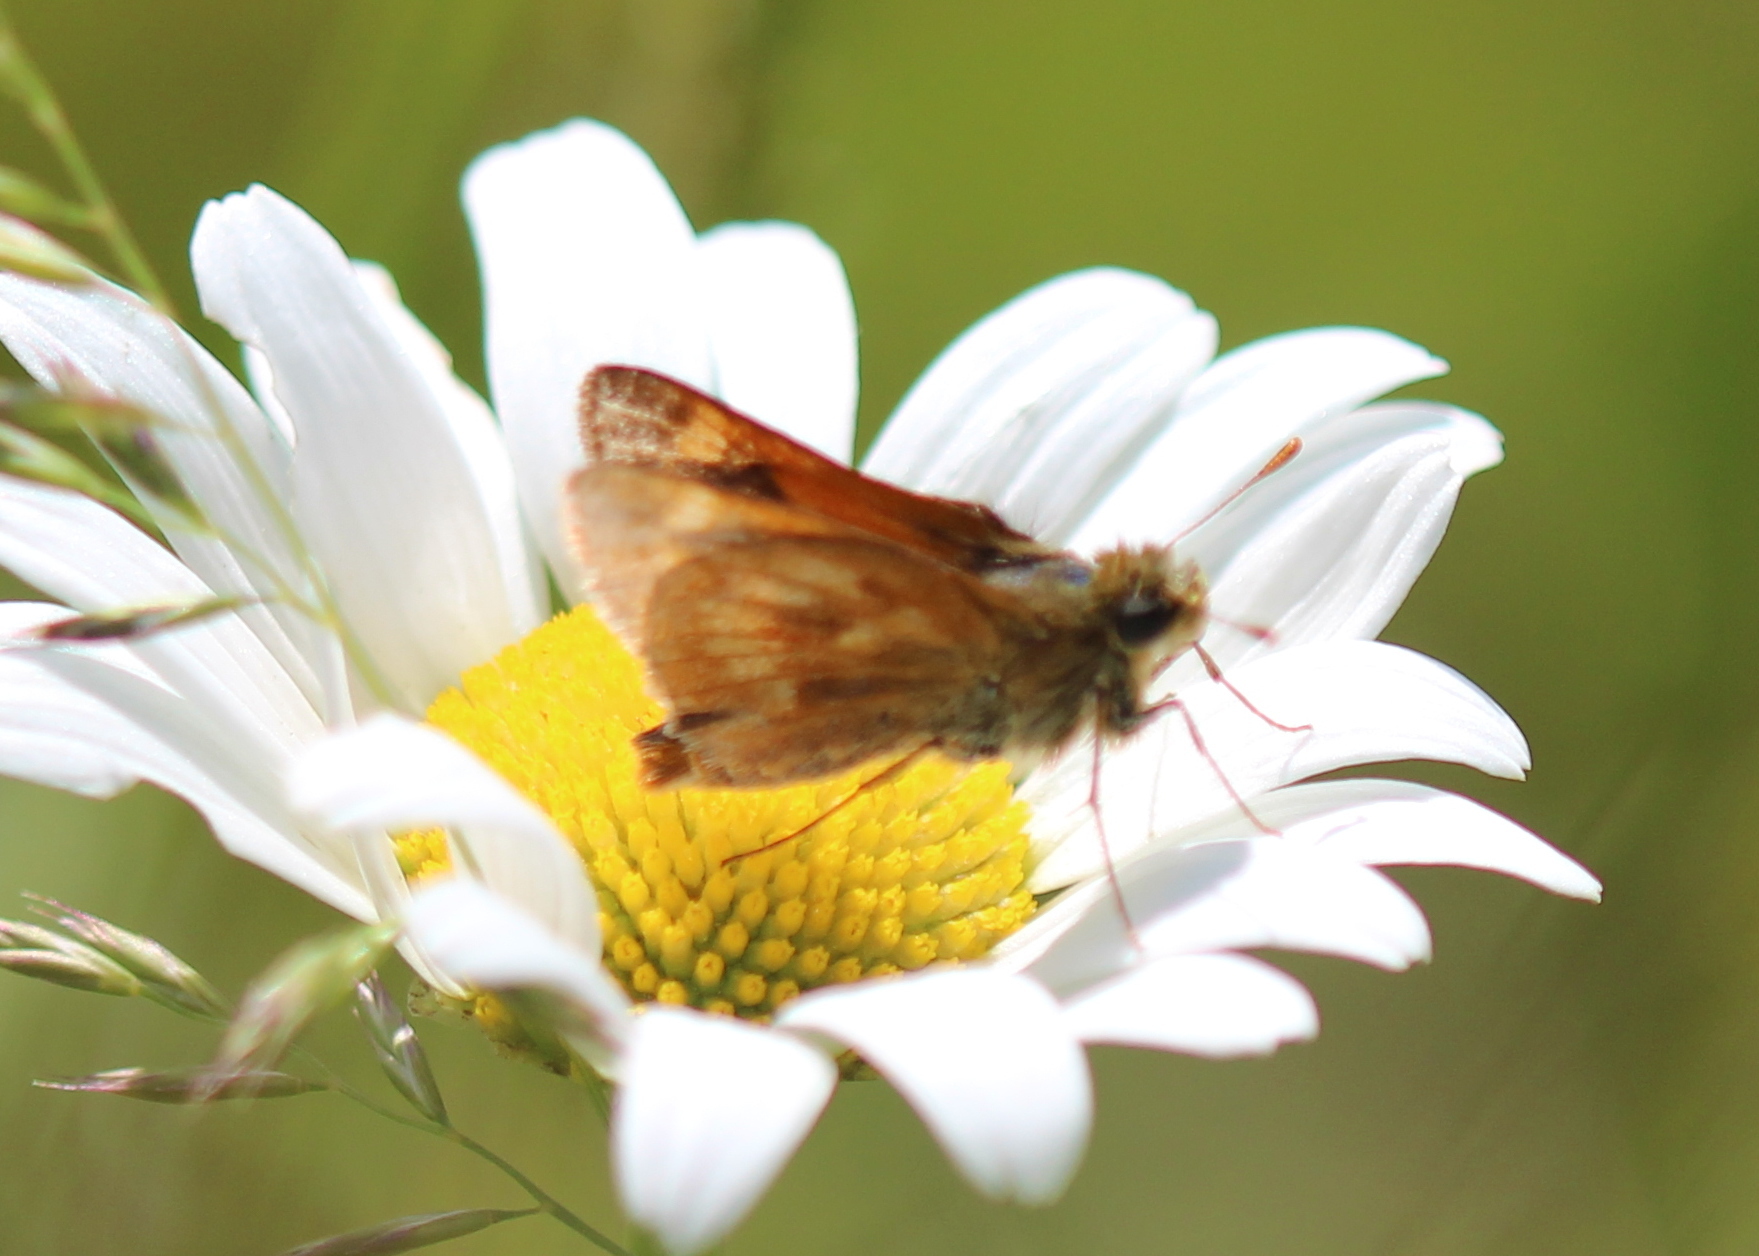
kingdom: Animalia
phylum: Arthropoda
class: Insecta
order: Lepidoptera
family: Hesperiidae
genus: Polites
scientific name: Polites mystic
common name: Long dash
